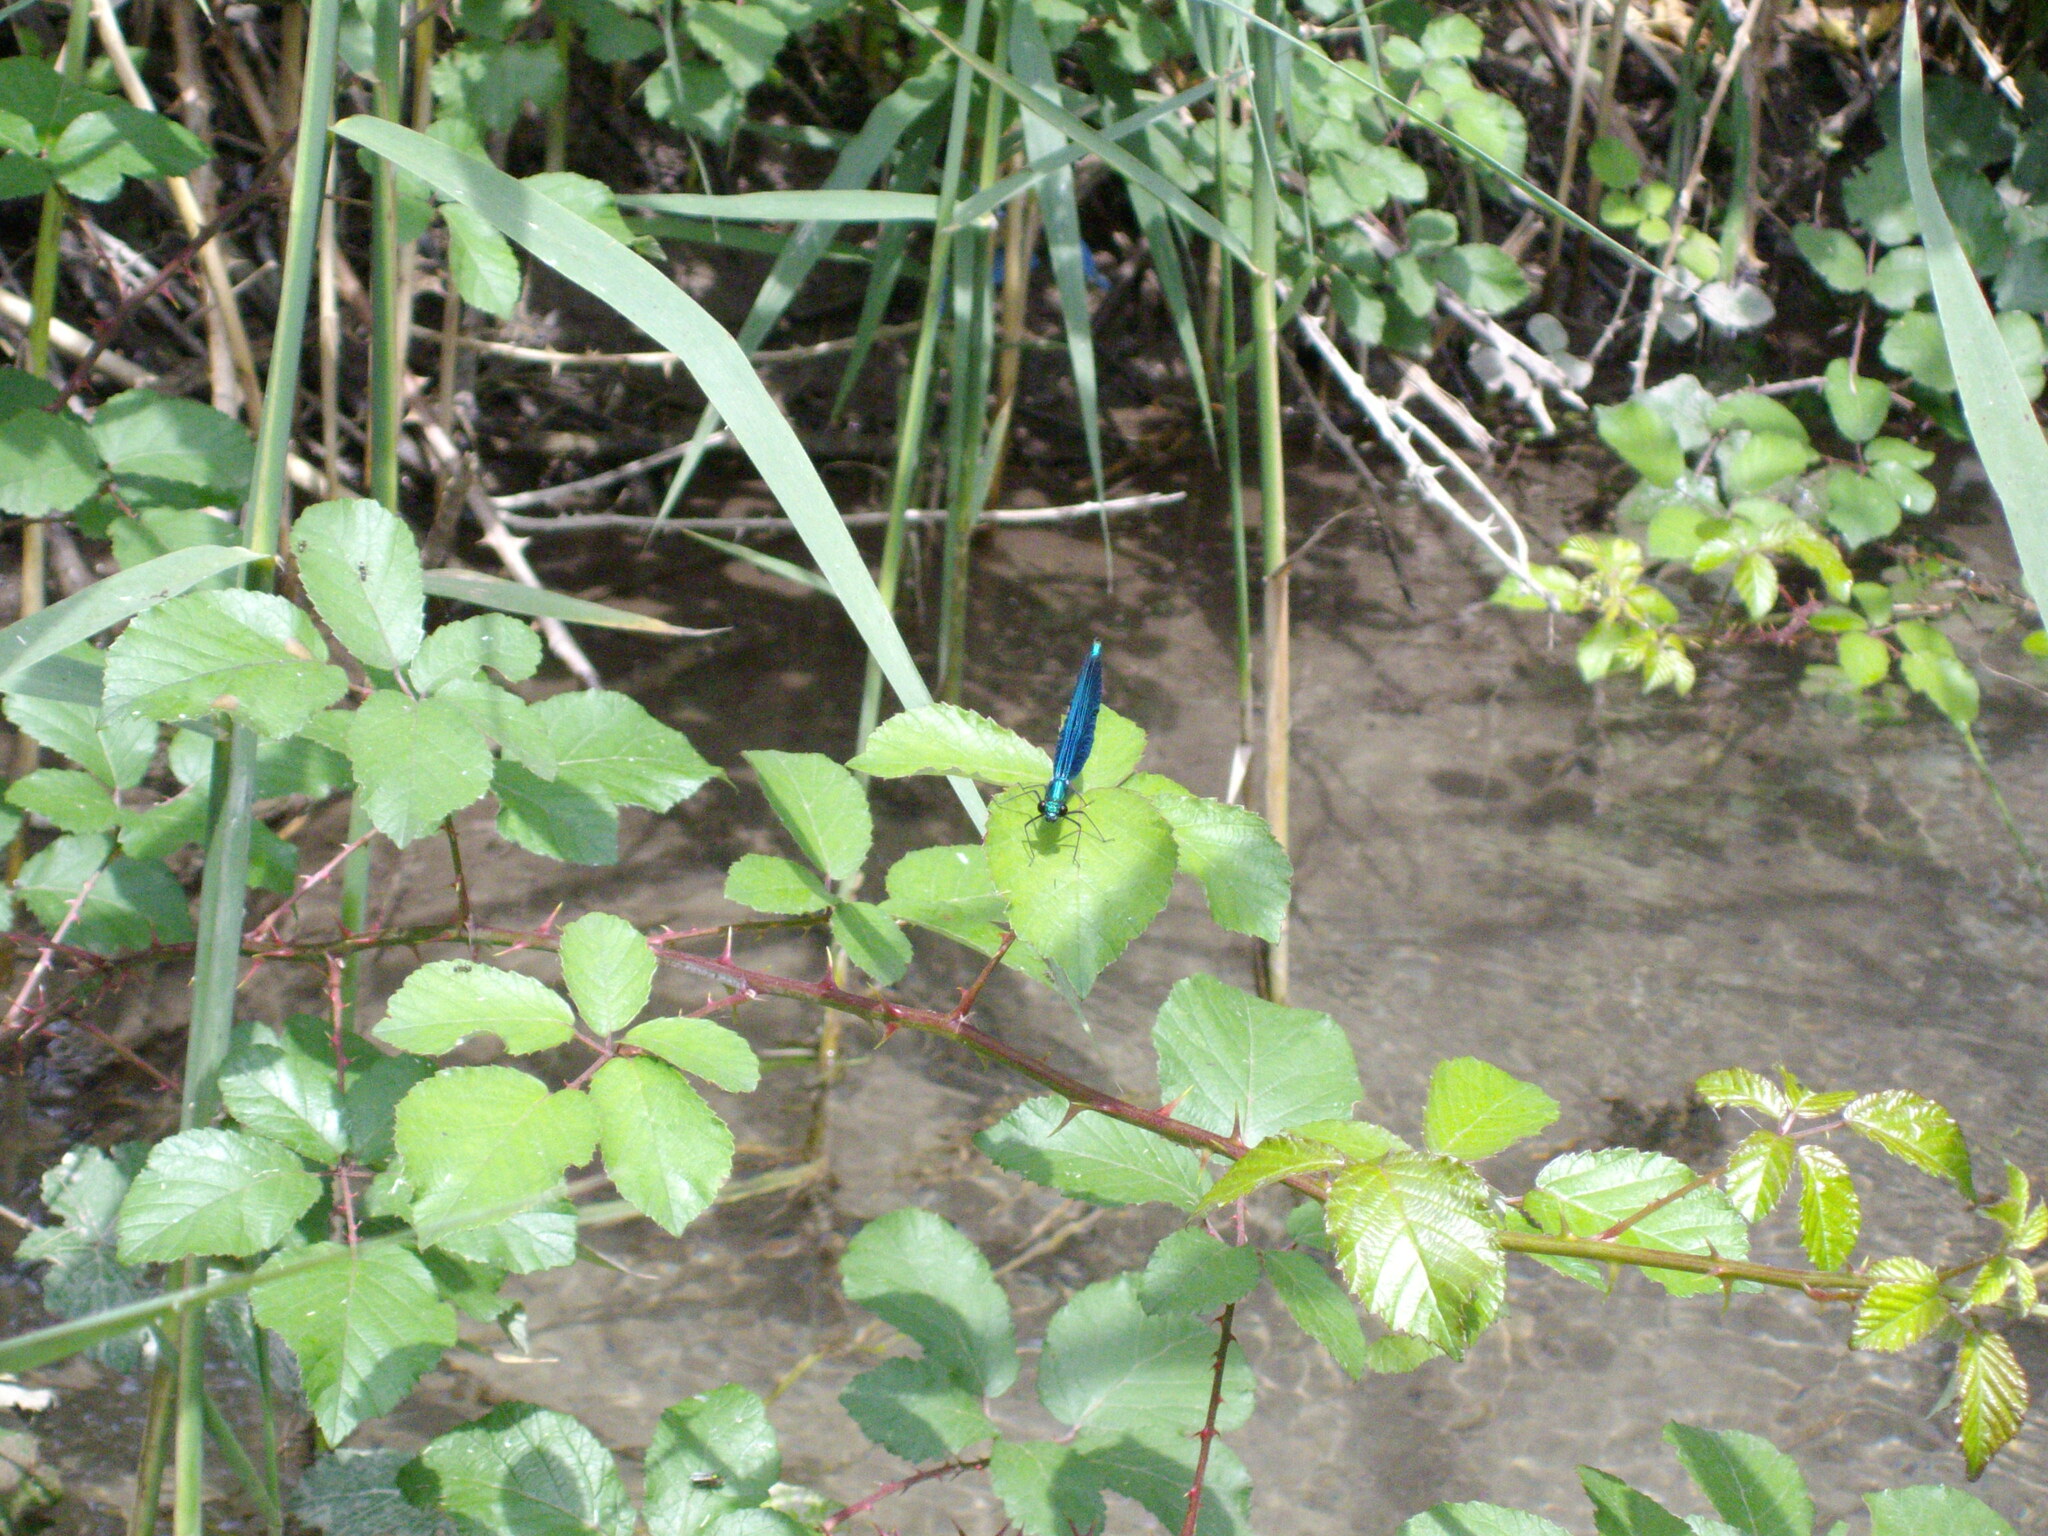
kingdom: Animalia
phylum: Arthropoda
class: Insecta
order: Odonata
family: Calopterygidae
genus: Calopteryx
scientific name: Calopteryx virgo
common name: Beautiful demoiselle
